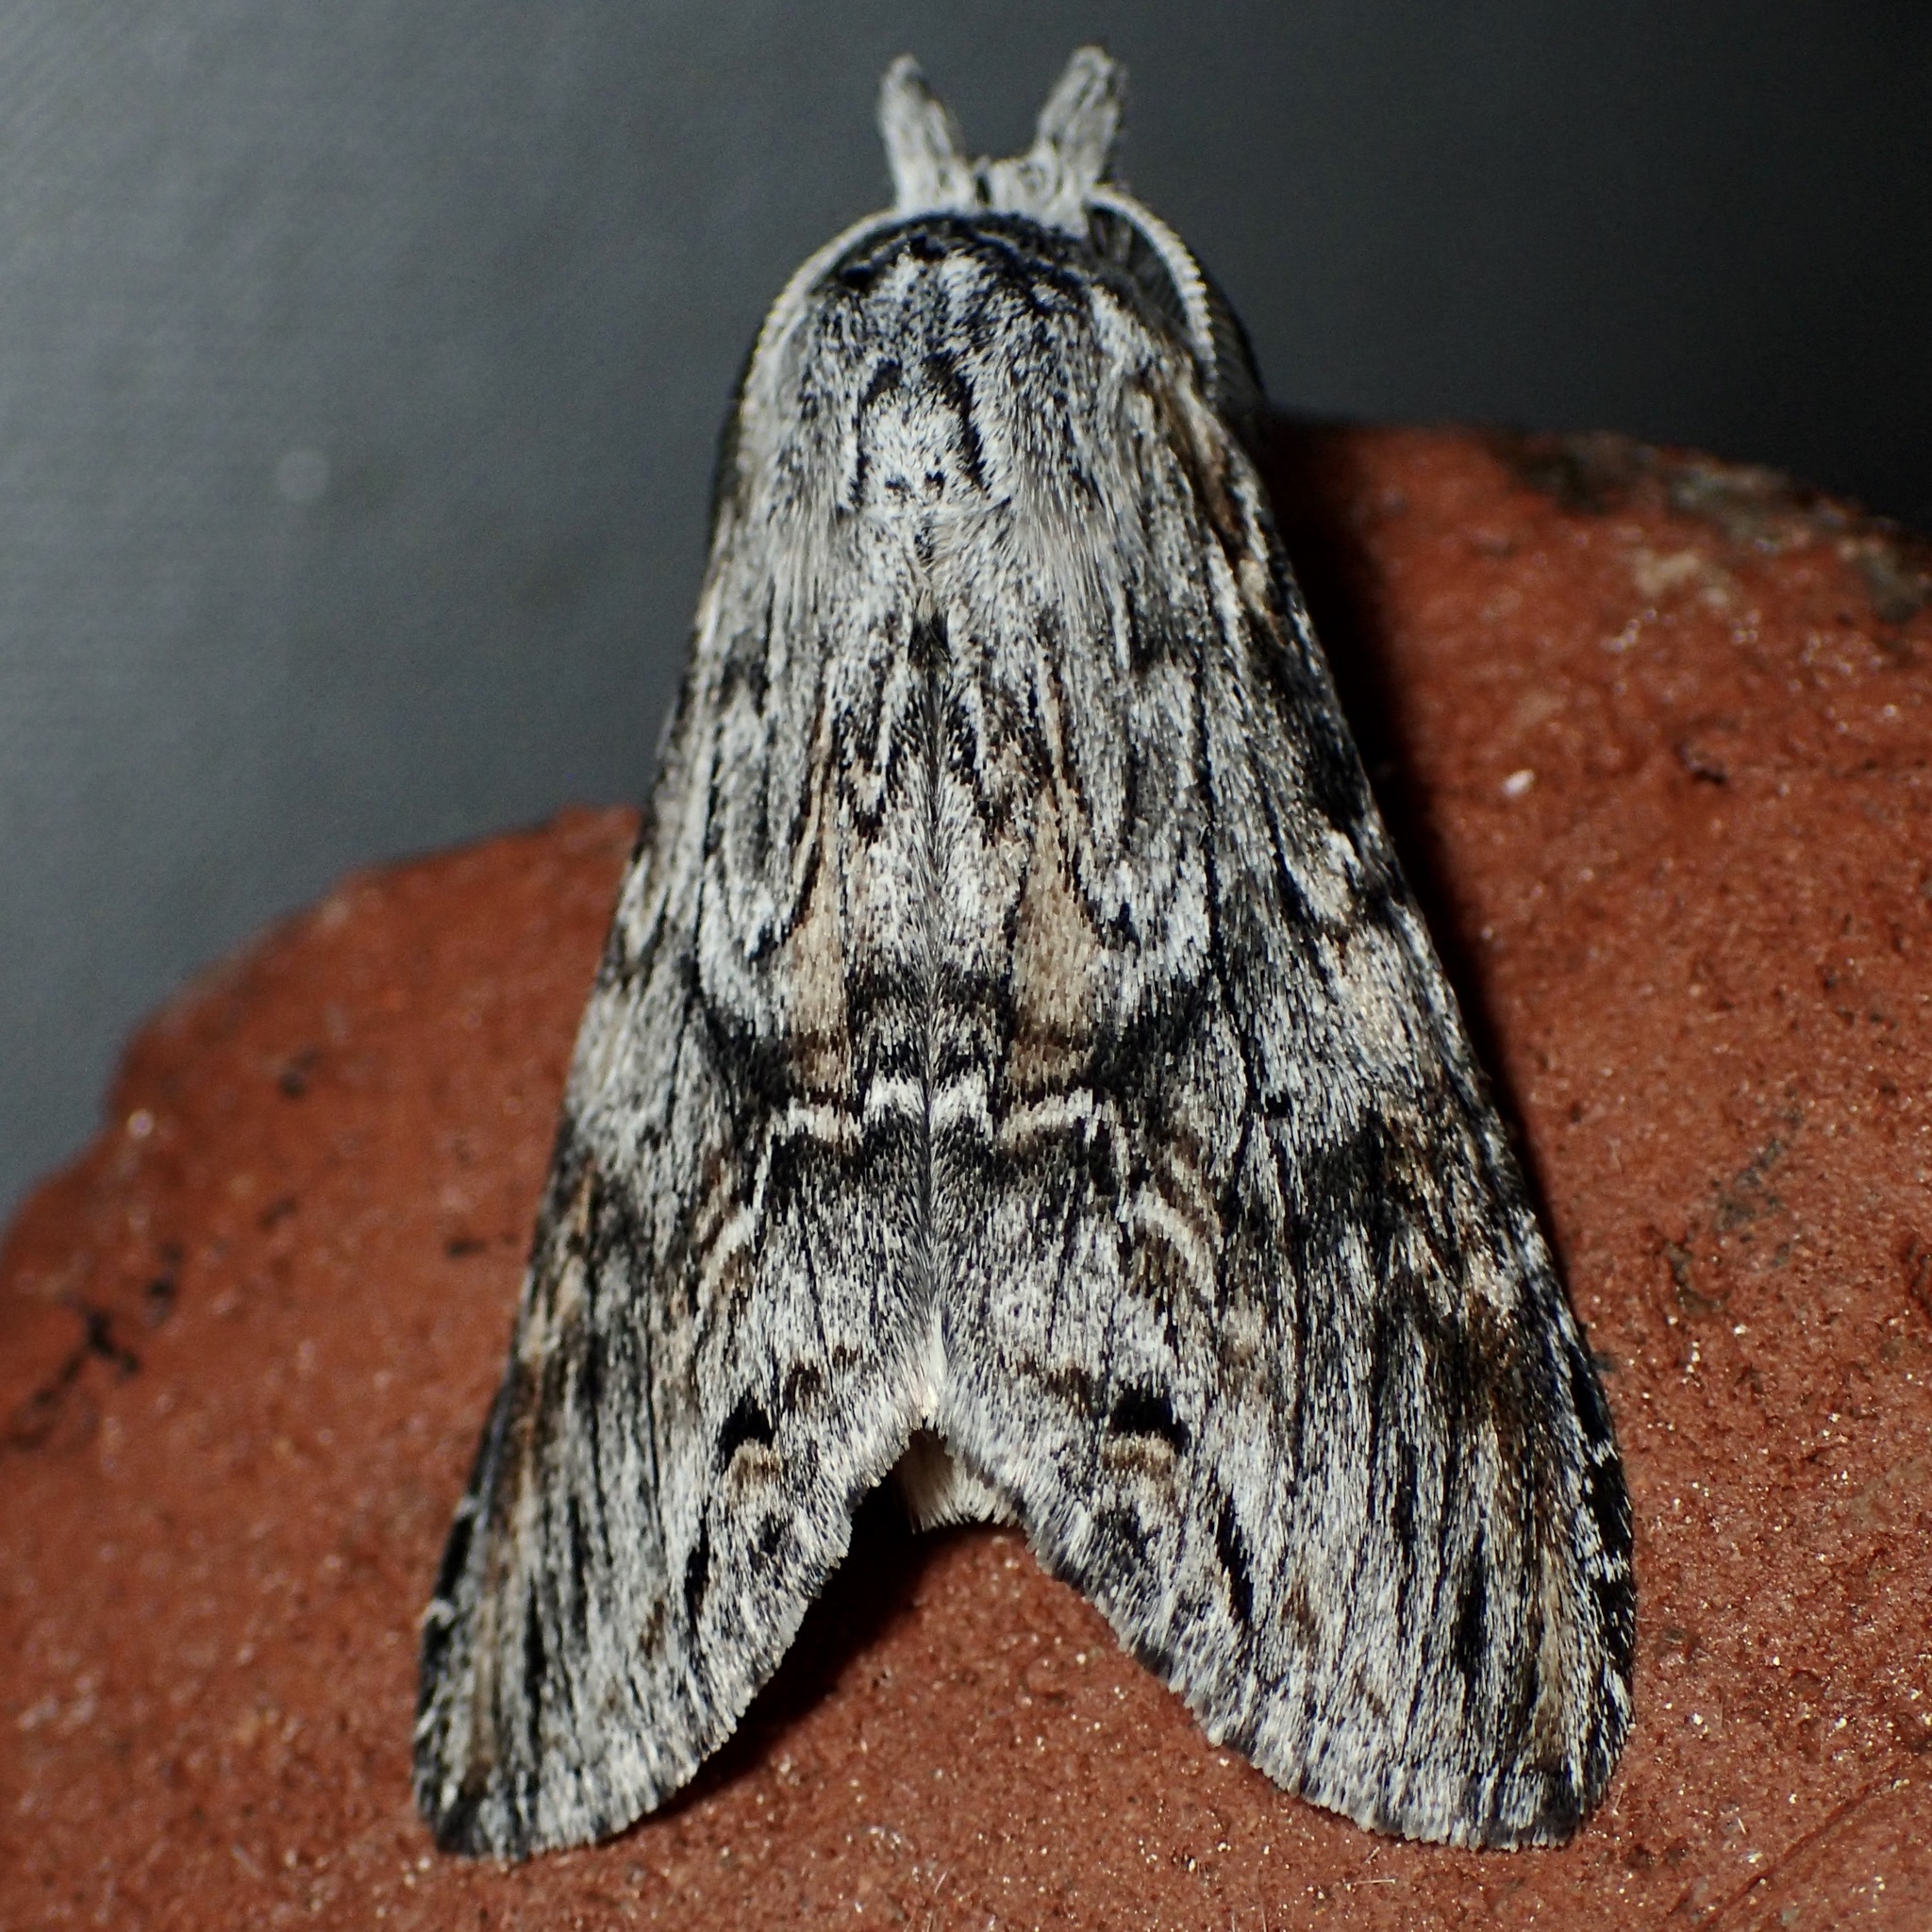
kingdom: Animalia
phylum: Arthropoda
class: Insecta
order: Lepidoptera
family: Notodontidae
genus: Notela
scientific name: Notela jaliscana
